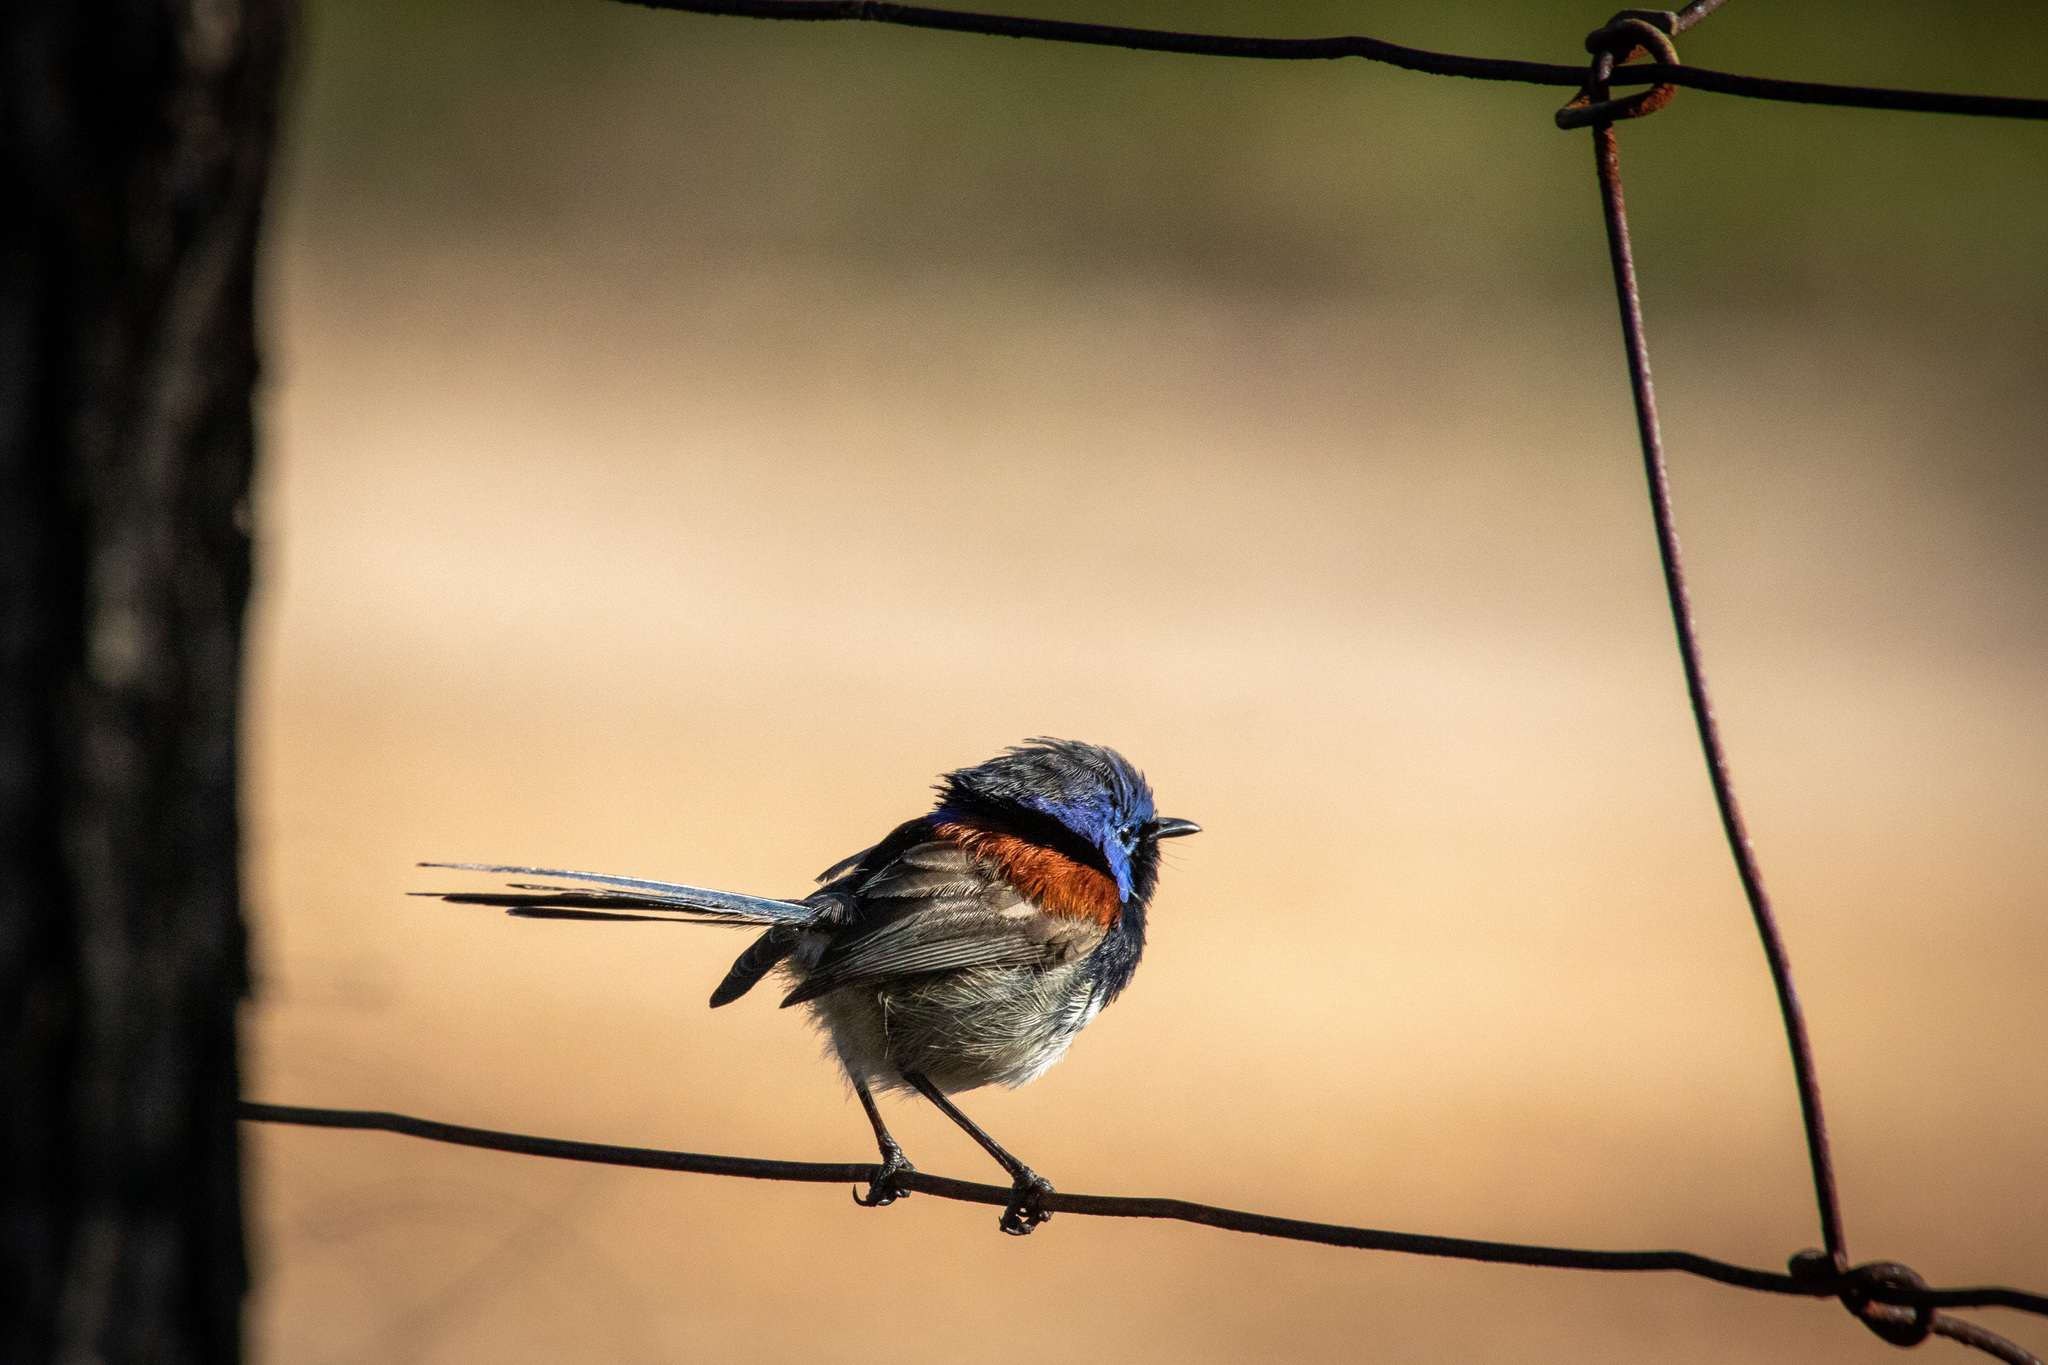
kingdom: Animalia
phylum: Chordata
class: Aves
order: Passeriformes
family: Maluridae
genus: Malurus
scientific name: Malurus elegans
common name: Red-winged fairywren
